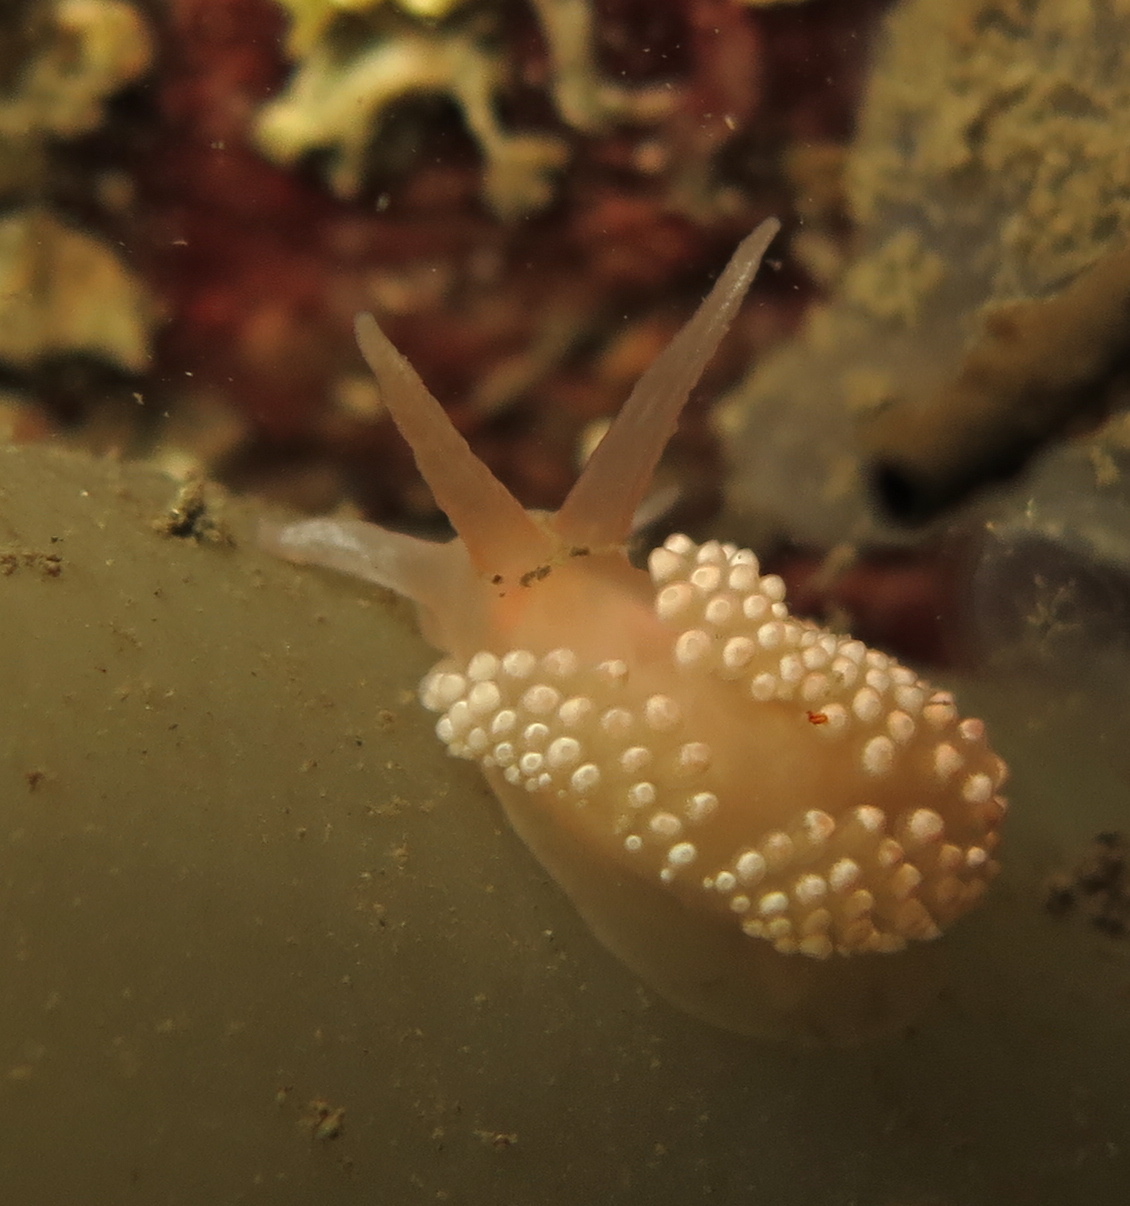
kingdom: Animalia
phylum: Mollusca
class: Gastropoda
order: Nudibranchia
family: Coryphellidae
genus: Coryphella
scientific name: Coryphella verrucosa
